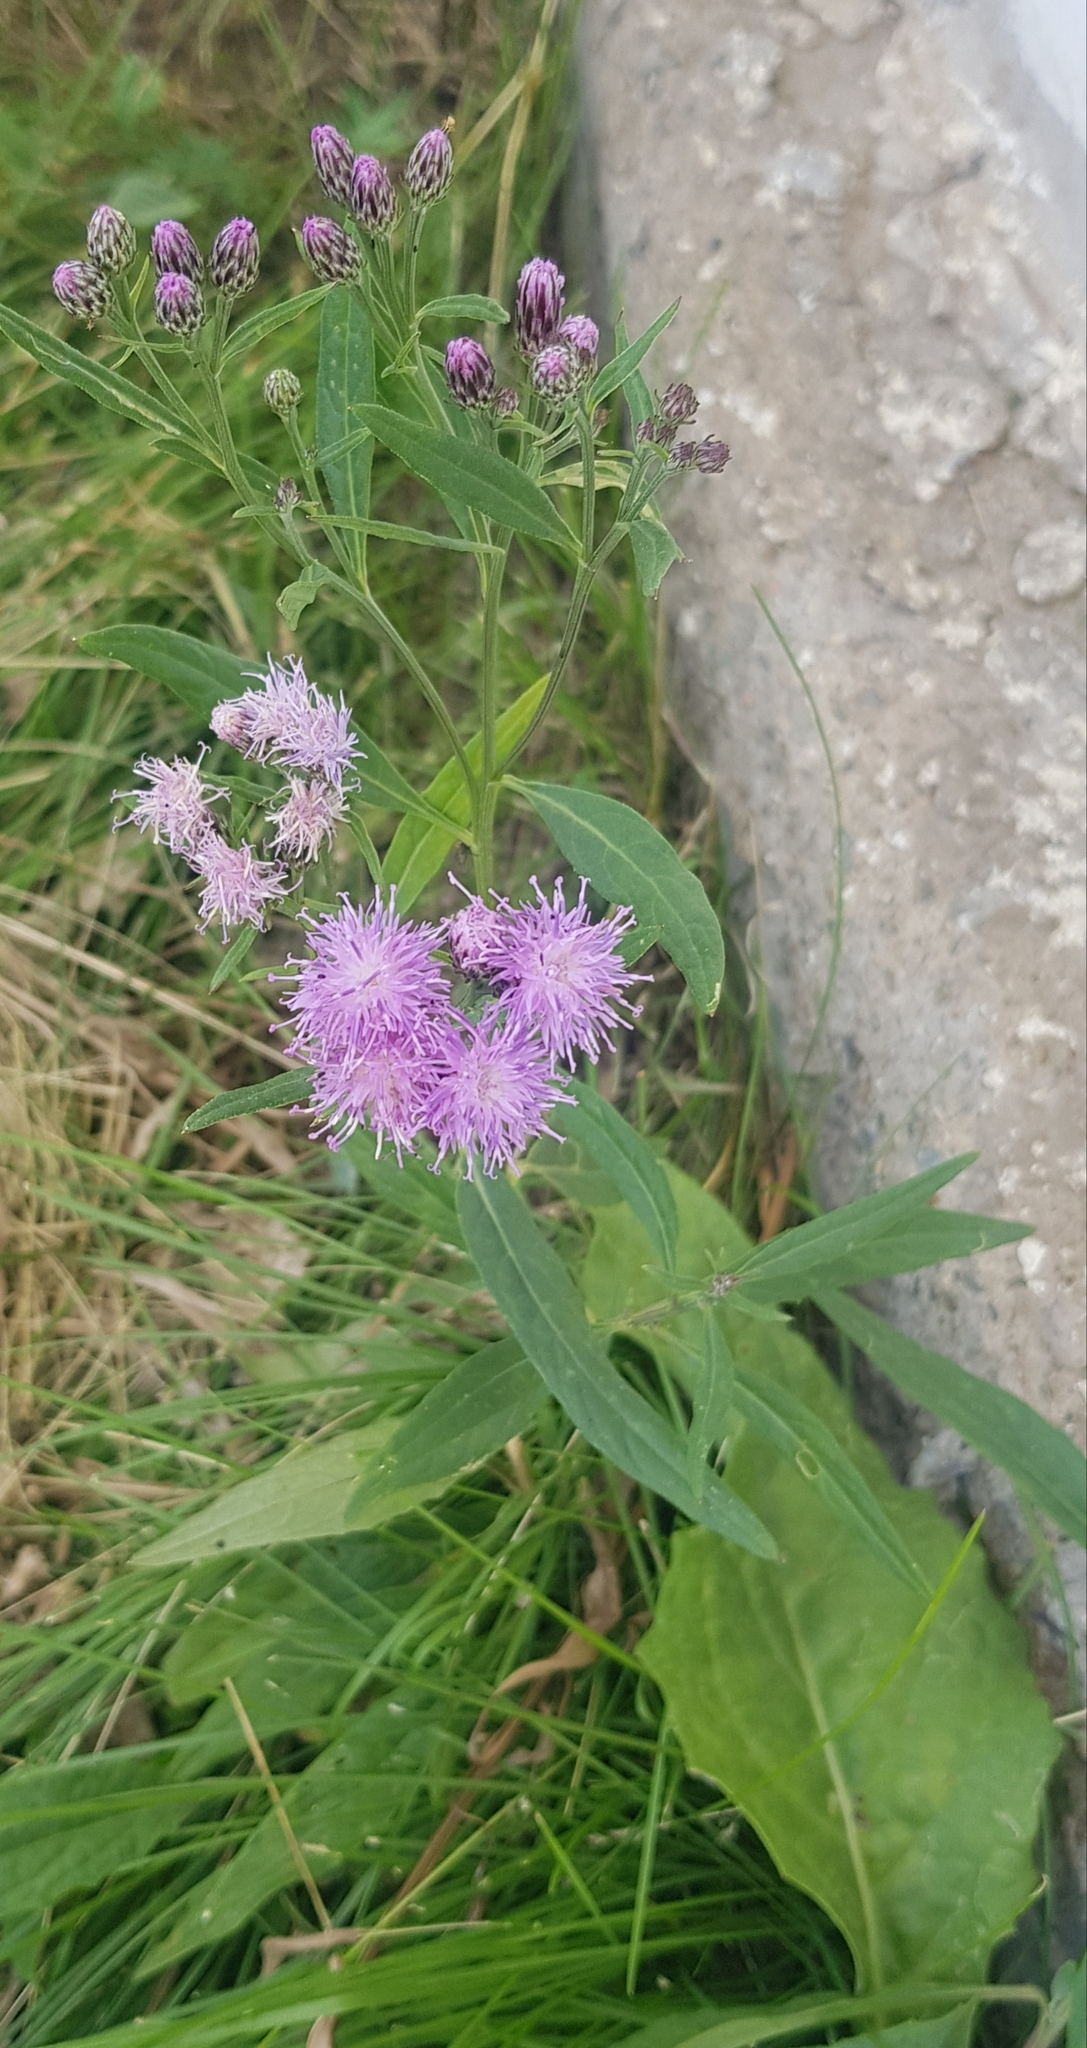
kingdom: Plantae
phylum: Tracheophyta
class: Magnoliopsida
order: Asterales
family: Asteraceae
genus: Saussurea
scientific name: Saussurea amara
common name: Alberta sawwort
